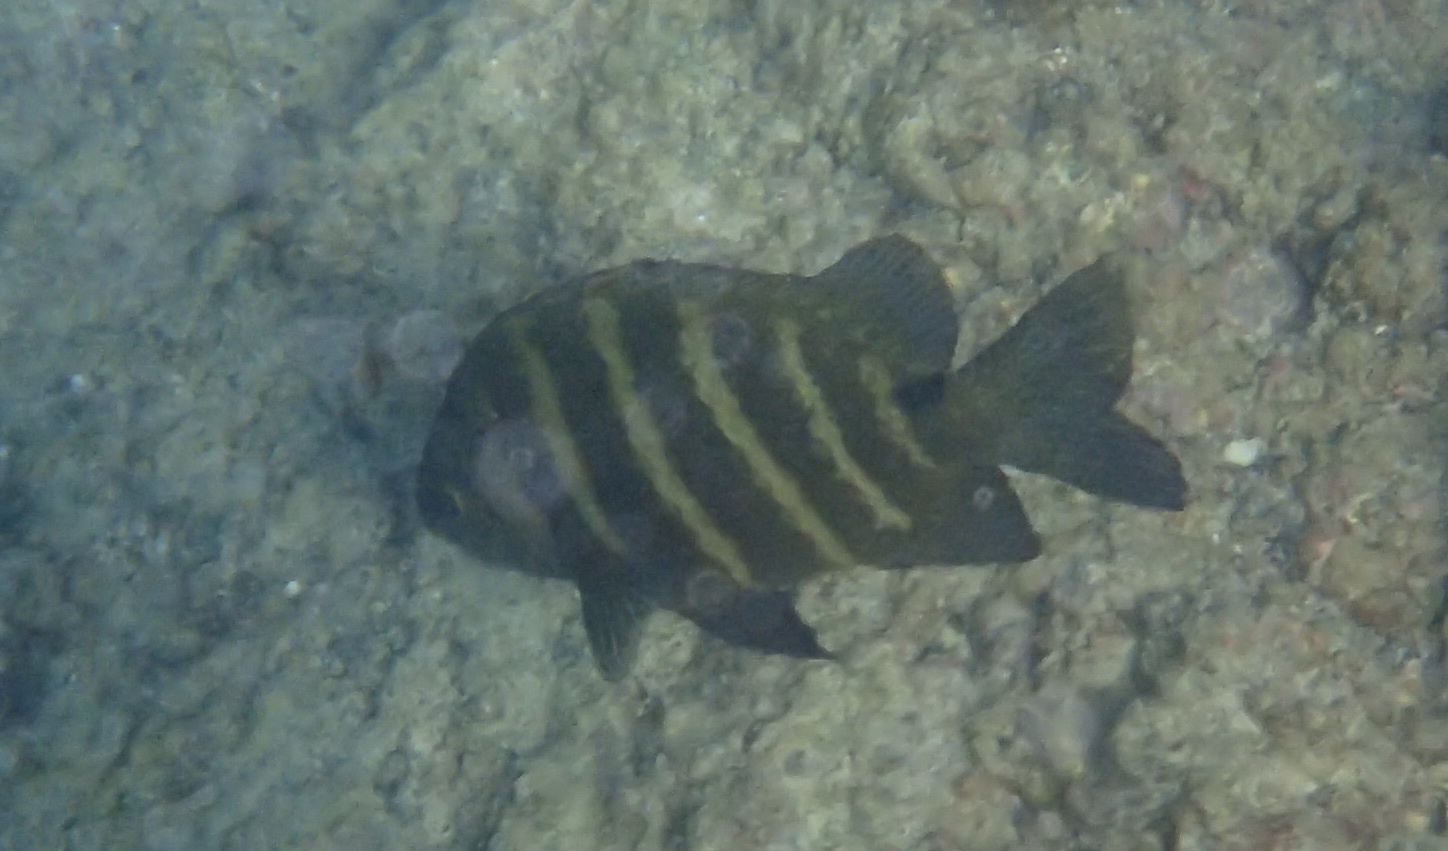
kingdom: Animalia
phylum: Chordata
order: Perciformes
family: Pomacentridae
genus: Abudefduf
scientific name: Abudefduf sordidus
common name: Blackspot sergeant
